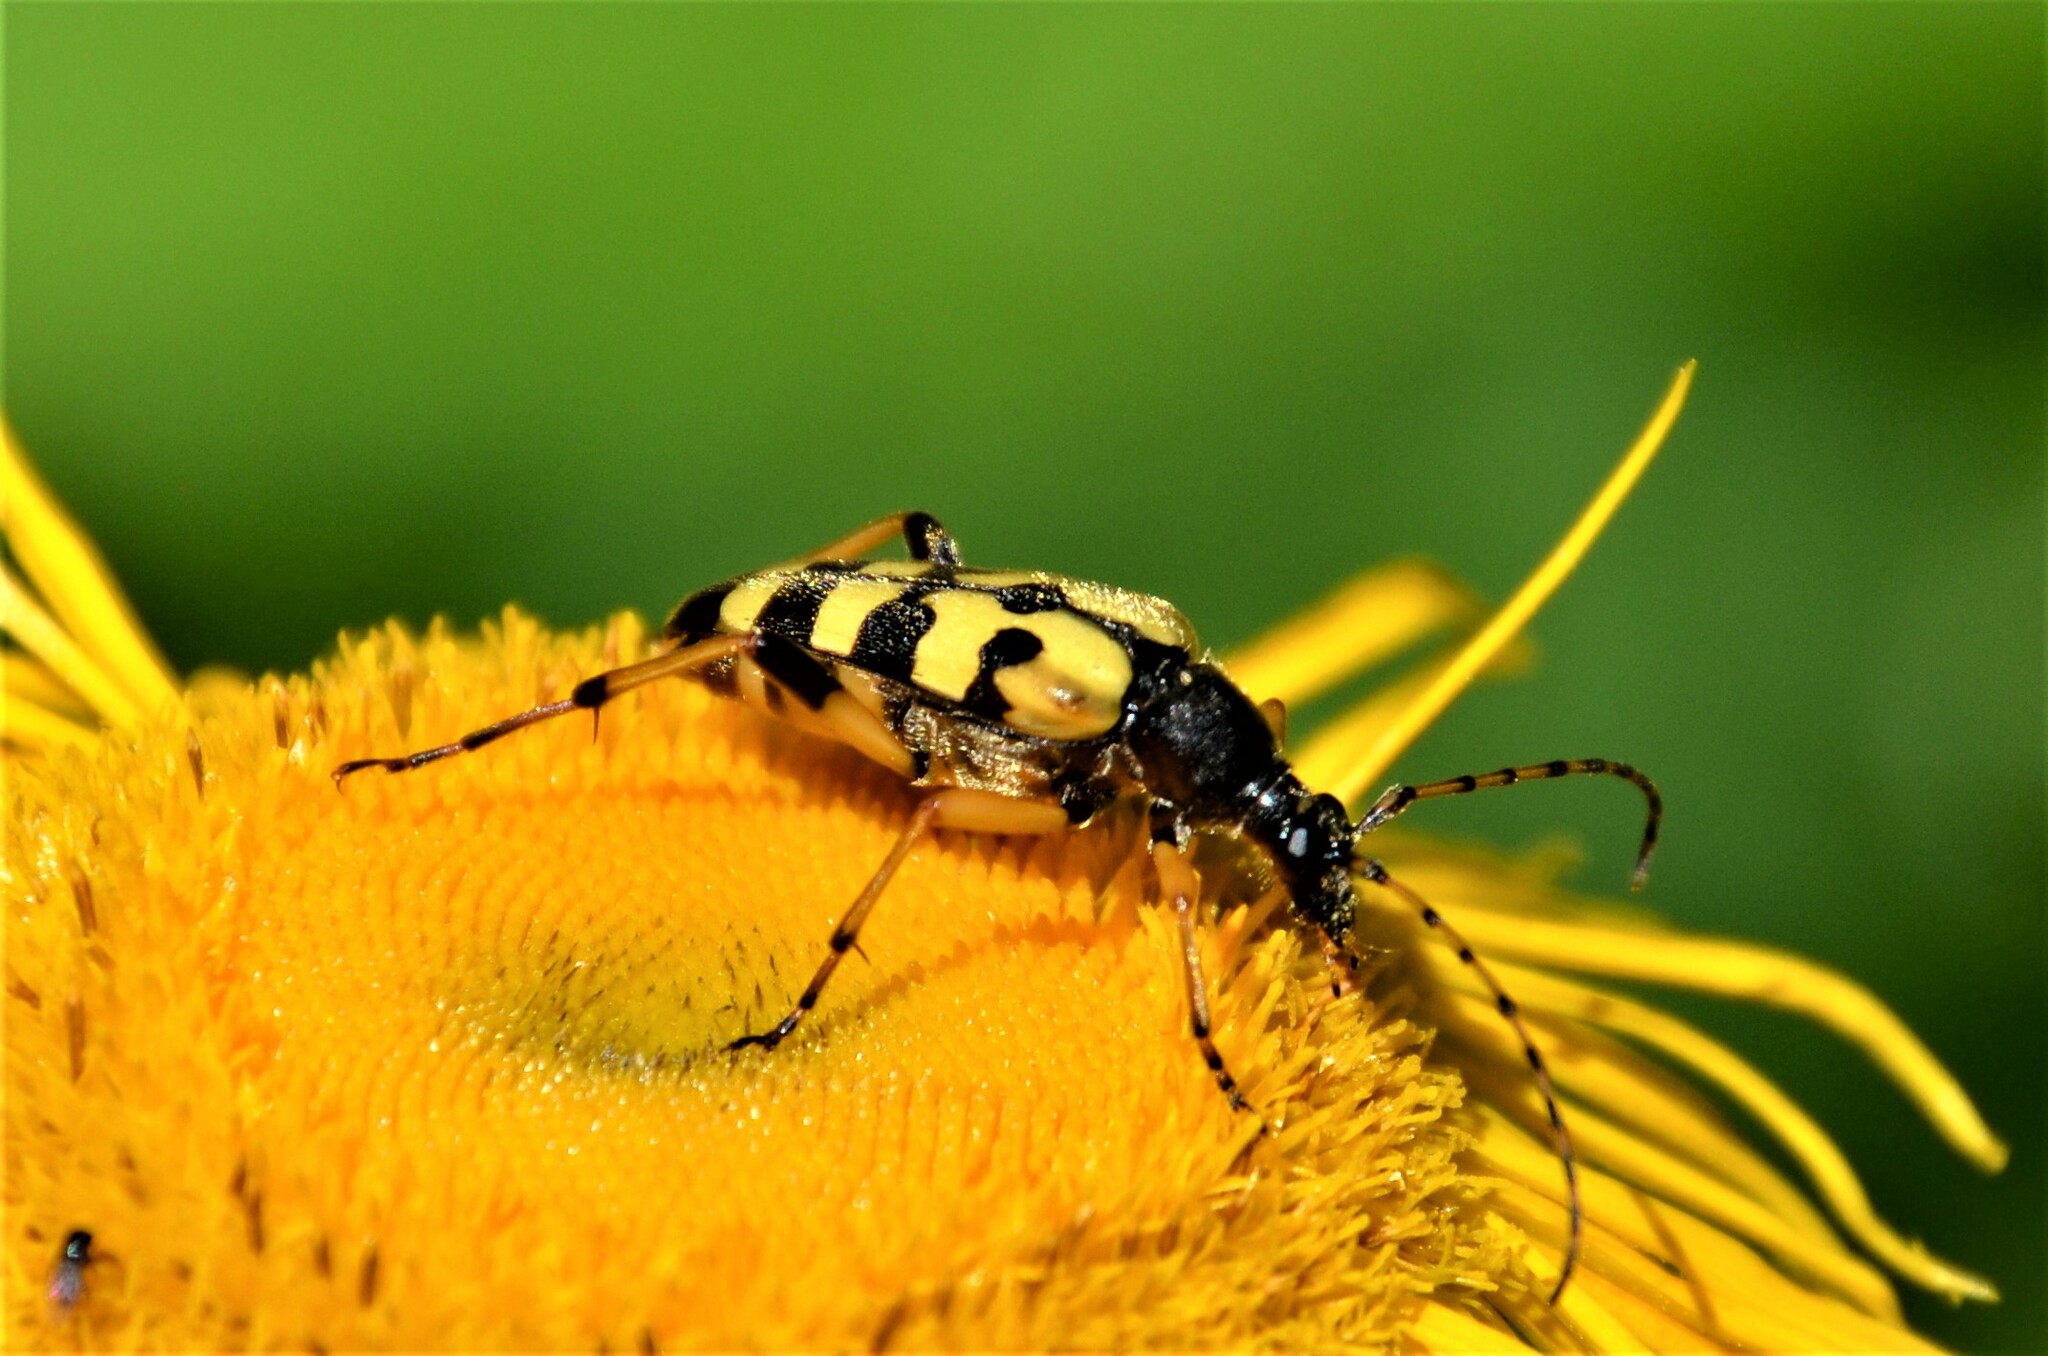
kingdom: Animalia
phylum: Arthropoda
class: Insecta
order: Coleoptera
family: Cerambycidae
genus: Rutpela
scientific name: Rutpela maculata
